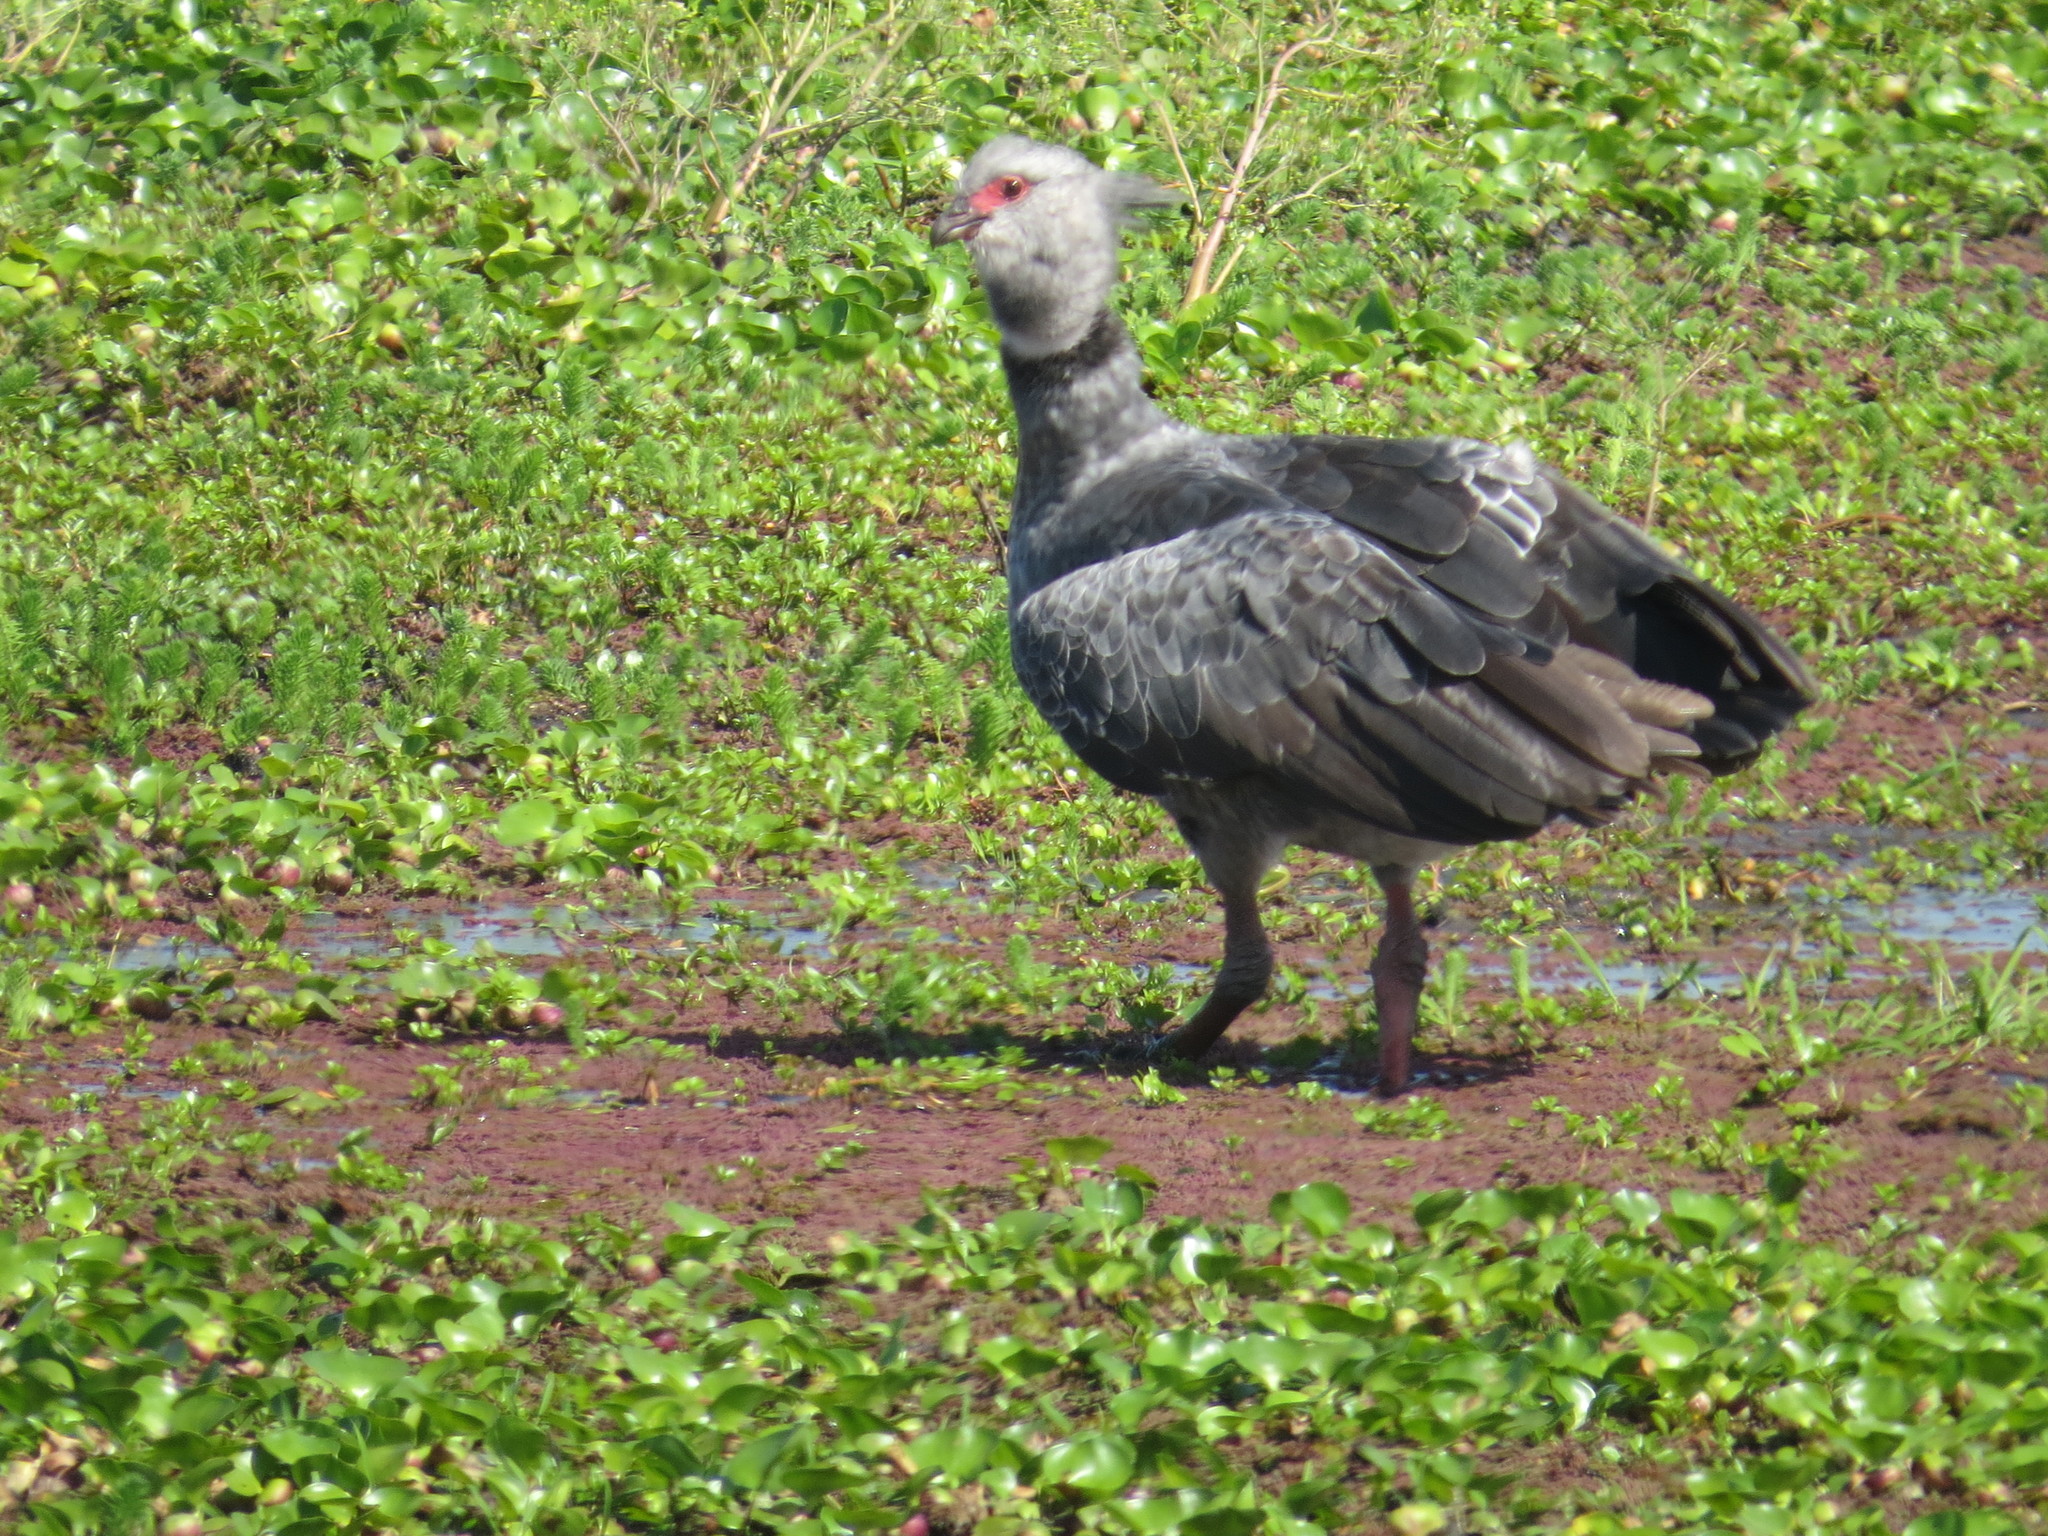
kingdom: Animalia
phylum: Chordata
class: Aves
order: Anseriformes
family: Anhimidae
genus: Chauna
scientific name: Chauna torquata
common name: Southern screamer
